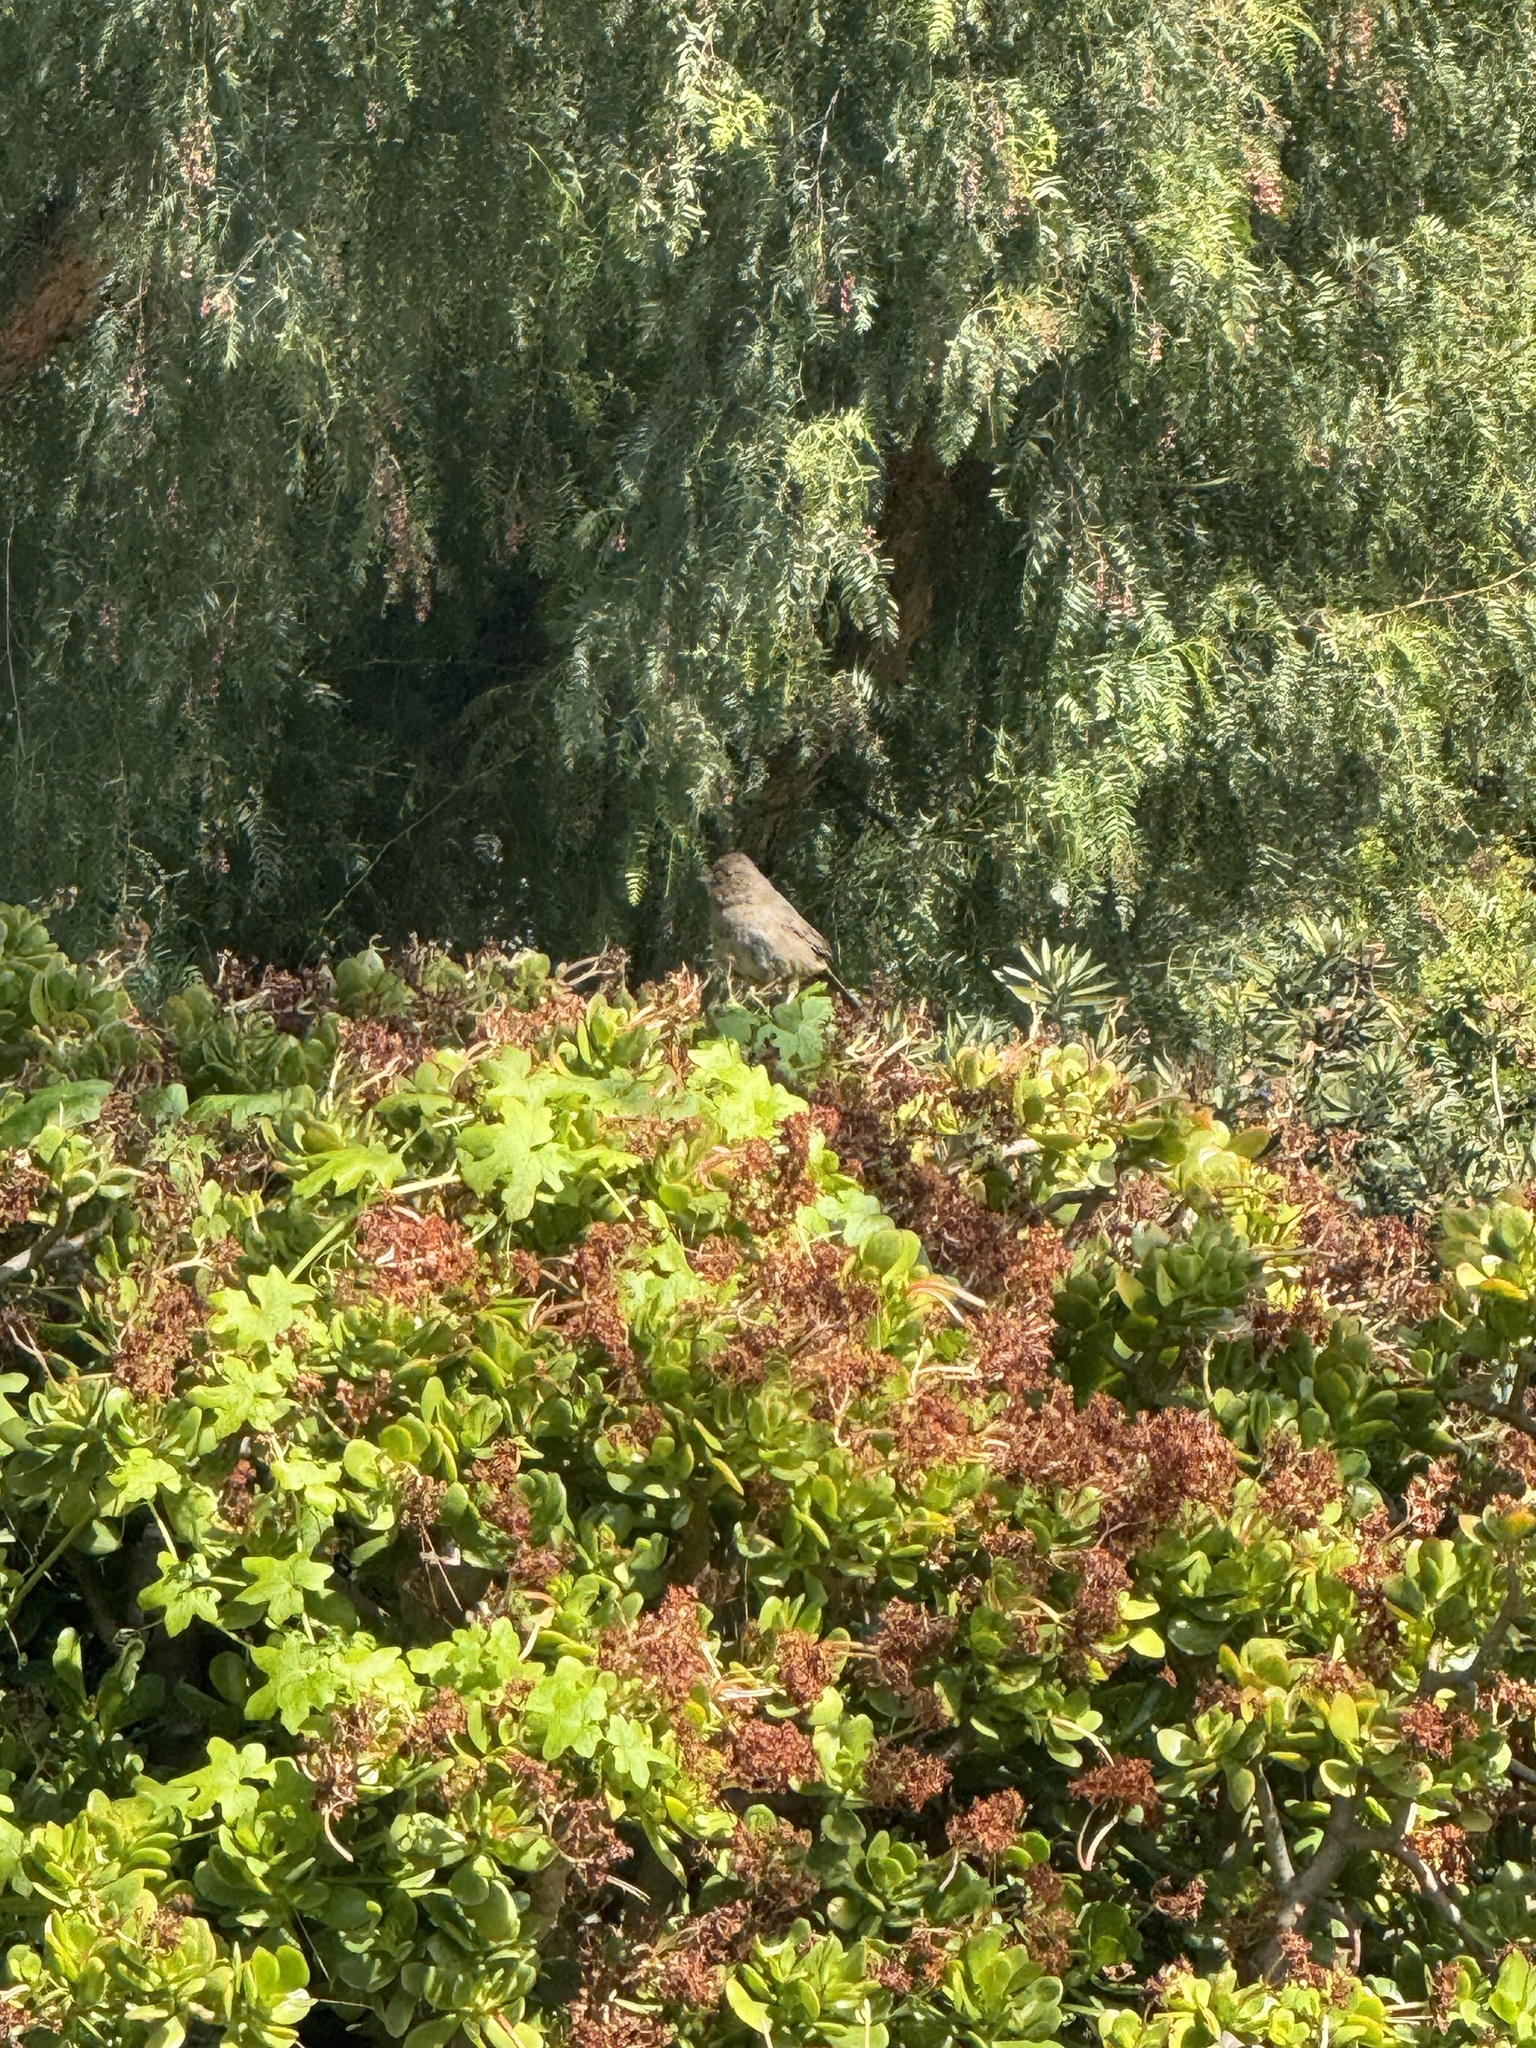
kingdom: Animalia
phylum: Chordata
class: Aves
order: Passeriformes
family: Passerellidae
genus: Melozone
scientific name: Melozone crissalis
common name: California towhee
